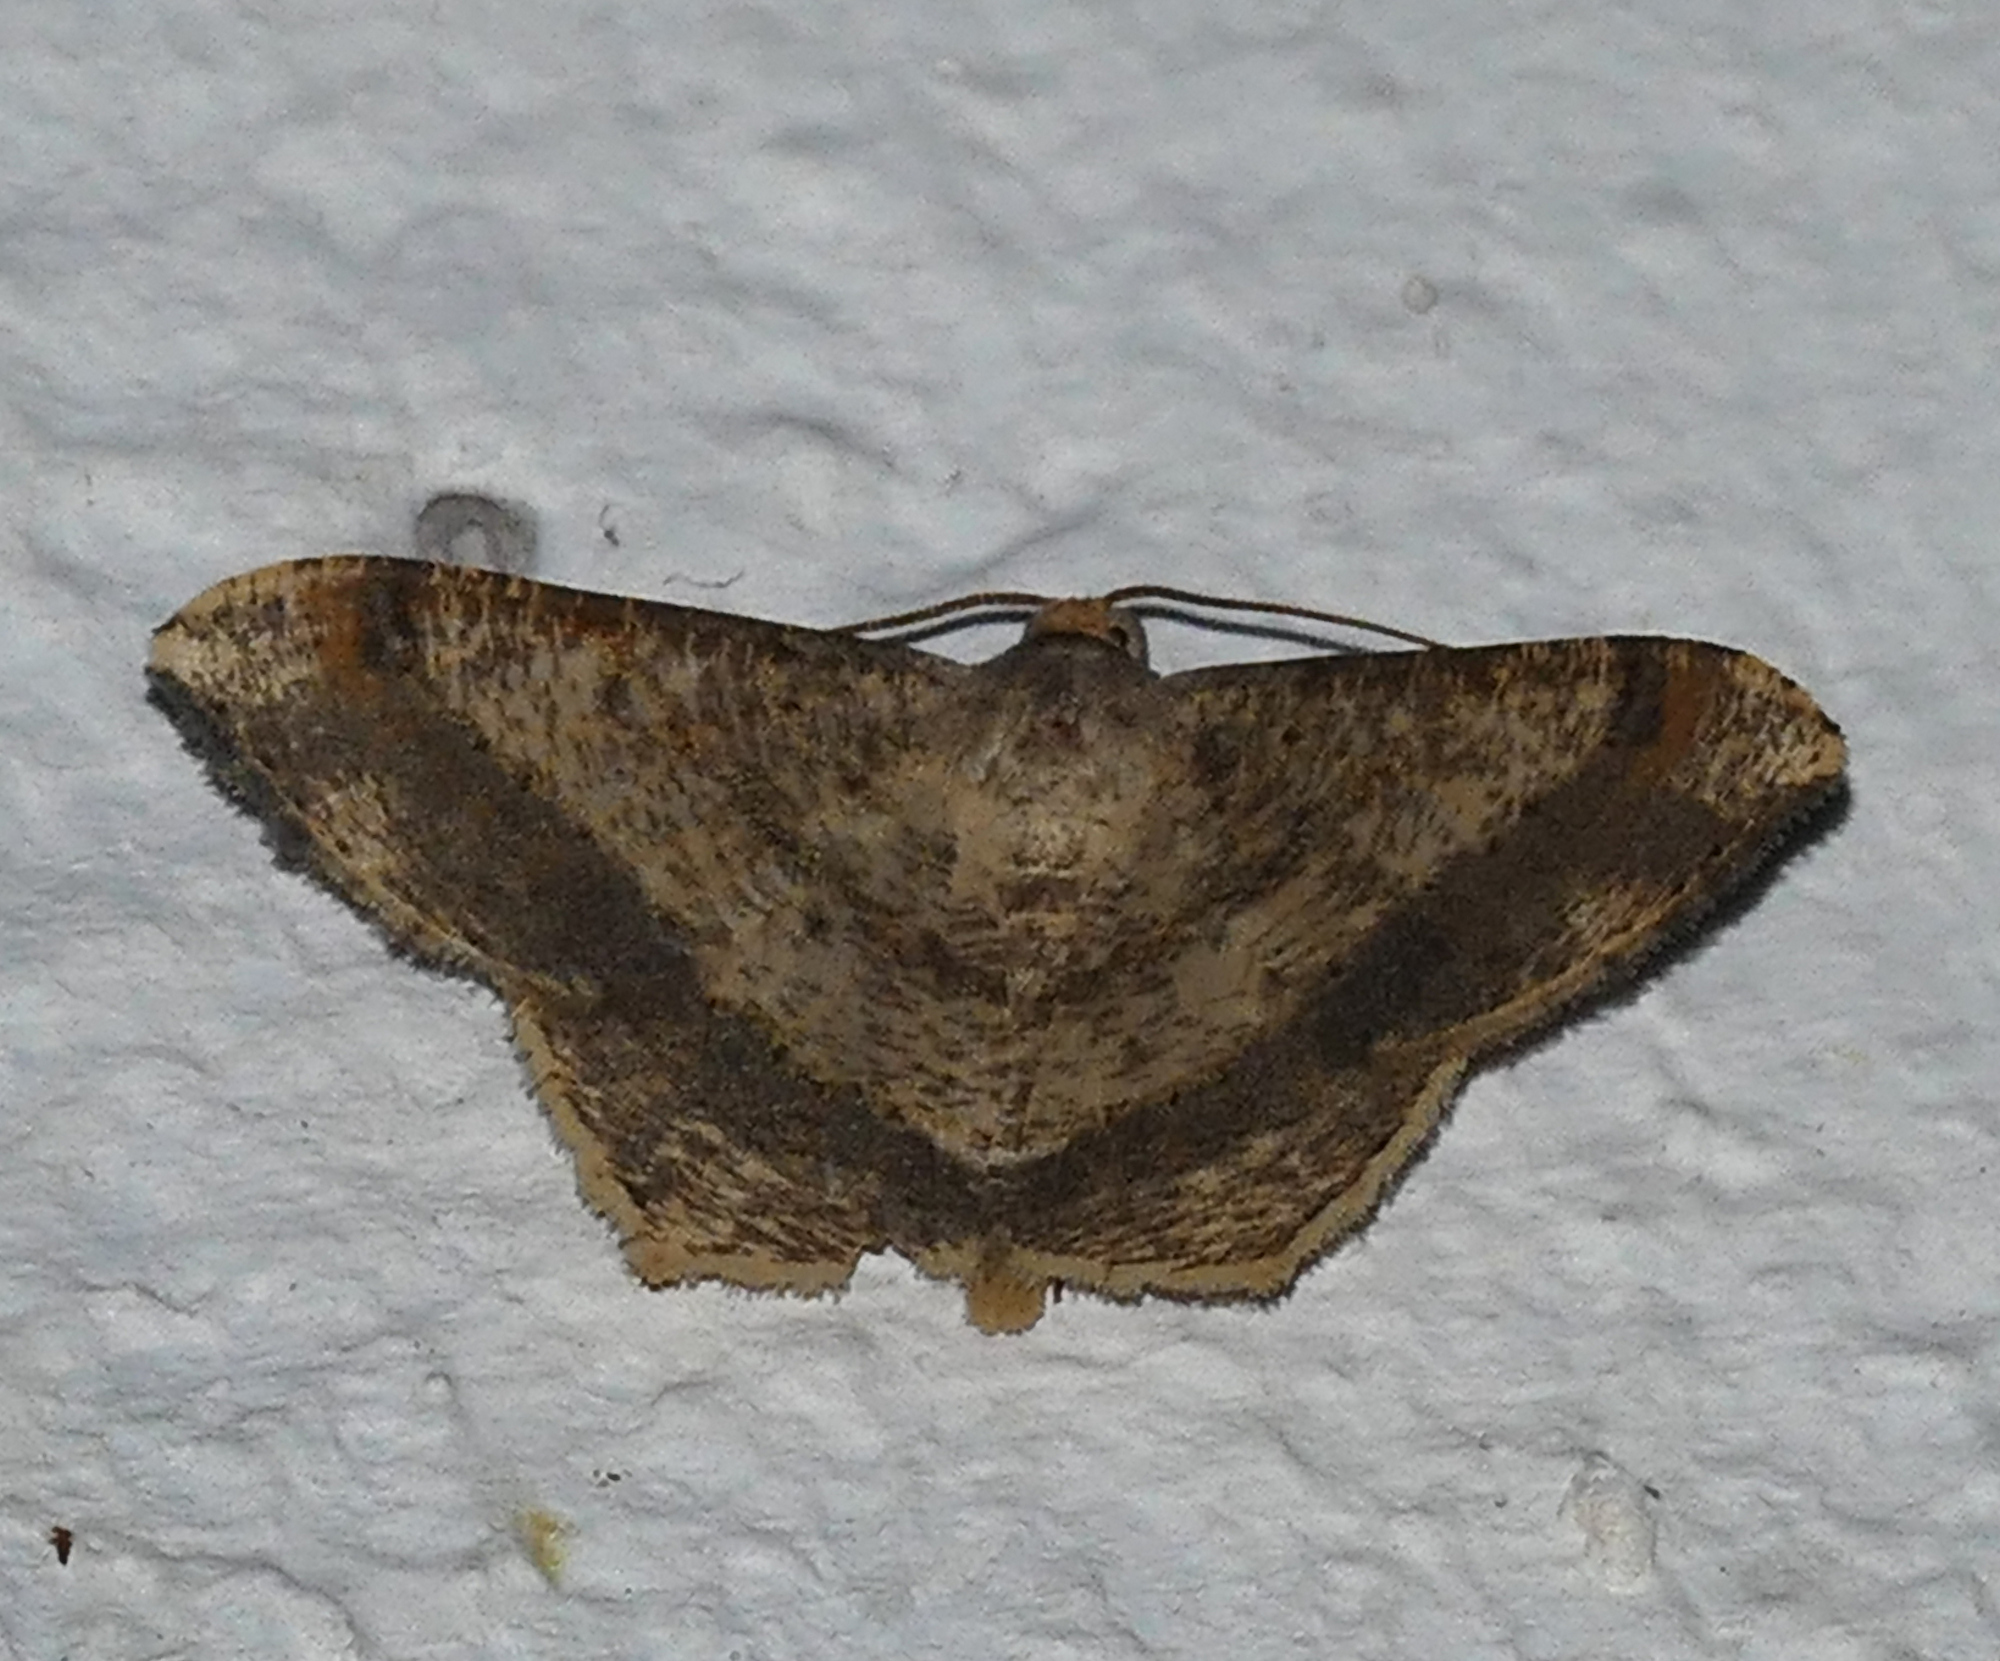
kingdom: Animalia
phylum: Arthropoda
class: Insecta
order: Lepidoptera
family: Geometridae
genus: Macaria
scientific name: Macaria abydata
